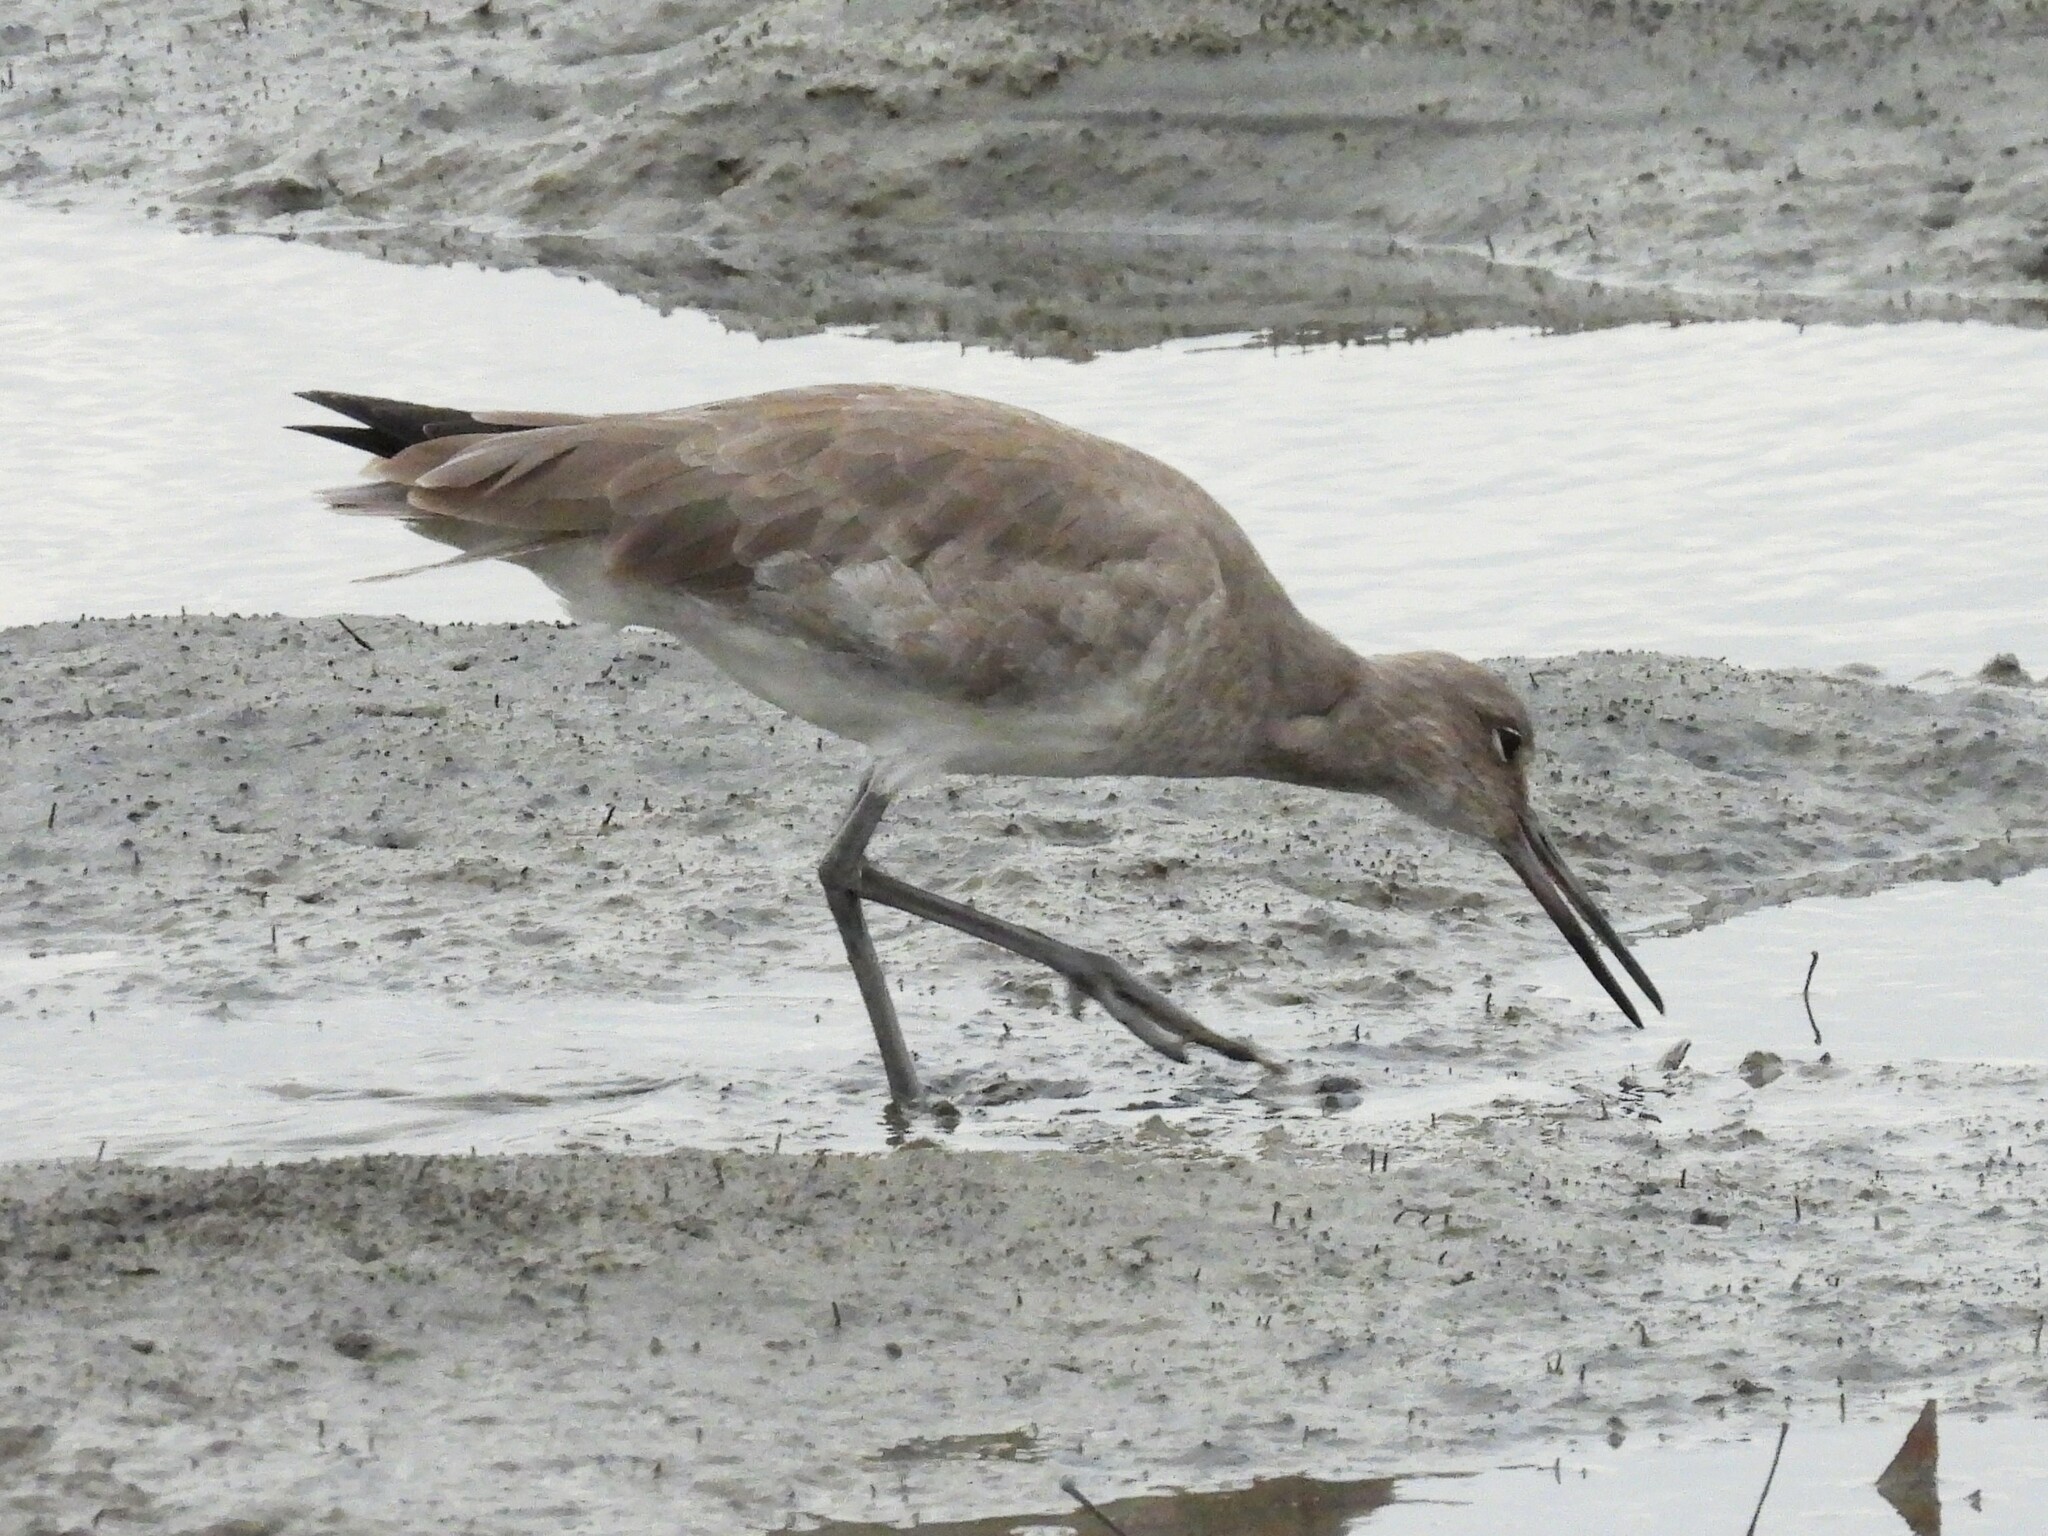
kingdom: Animalia
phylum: Chordata
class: Aves
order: Charadriiformes
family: Scolopacidae
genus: Tringa
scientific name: Tringa semipalmata
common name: Willet
